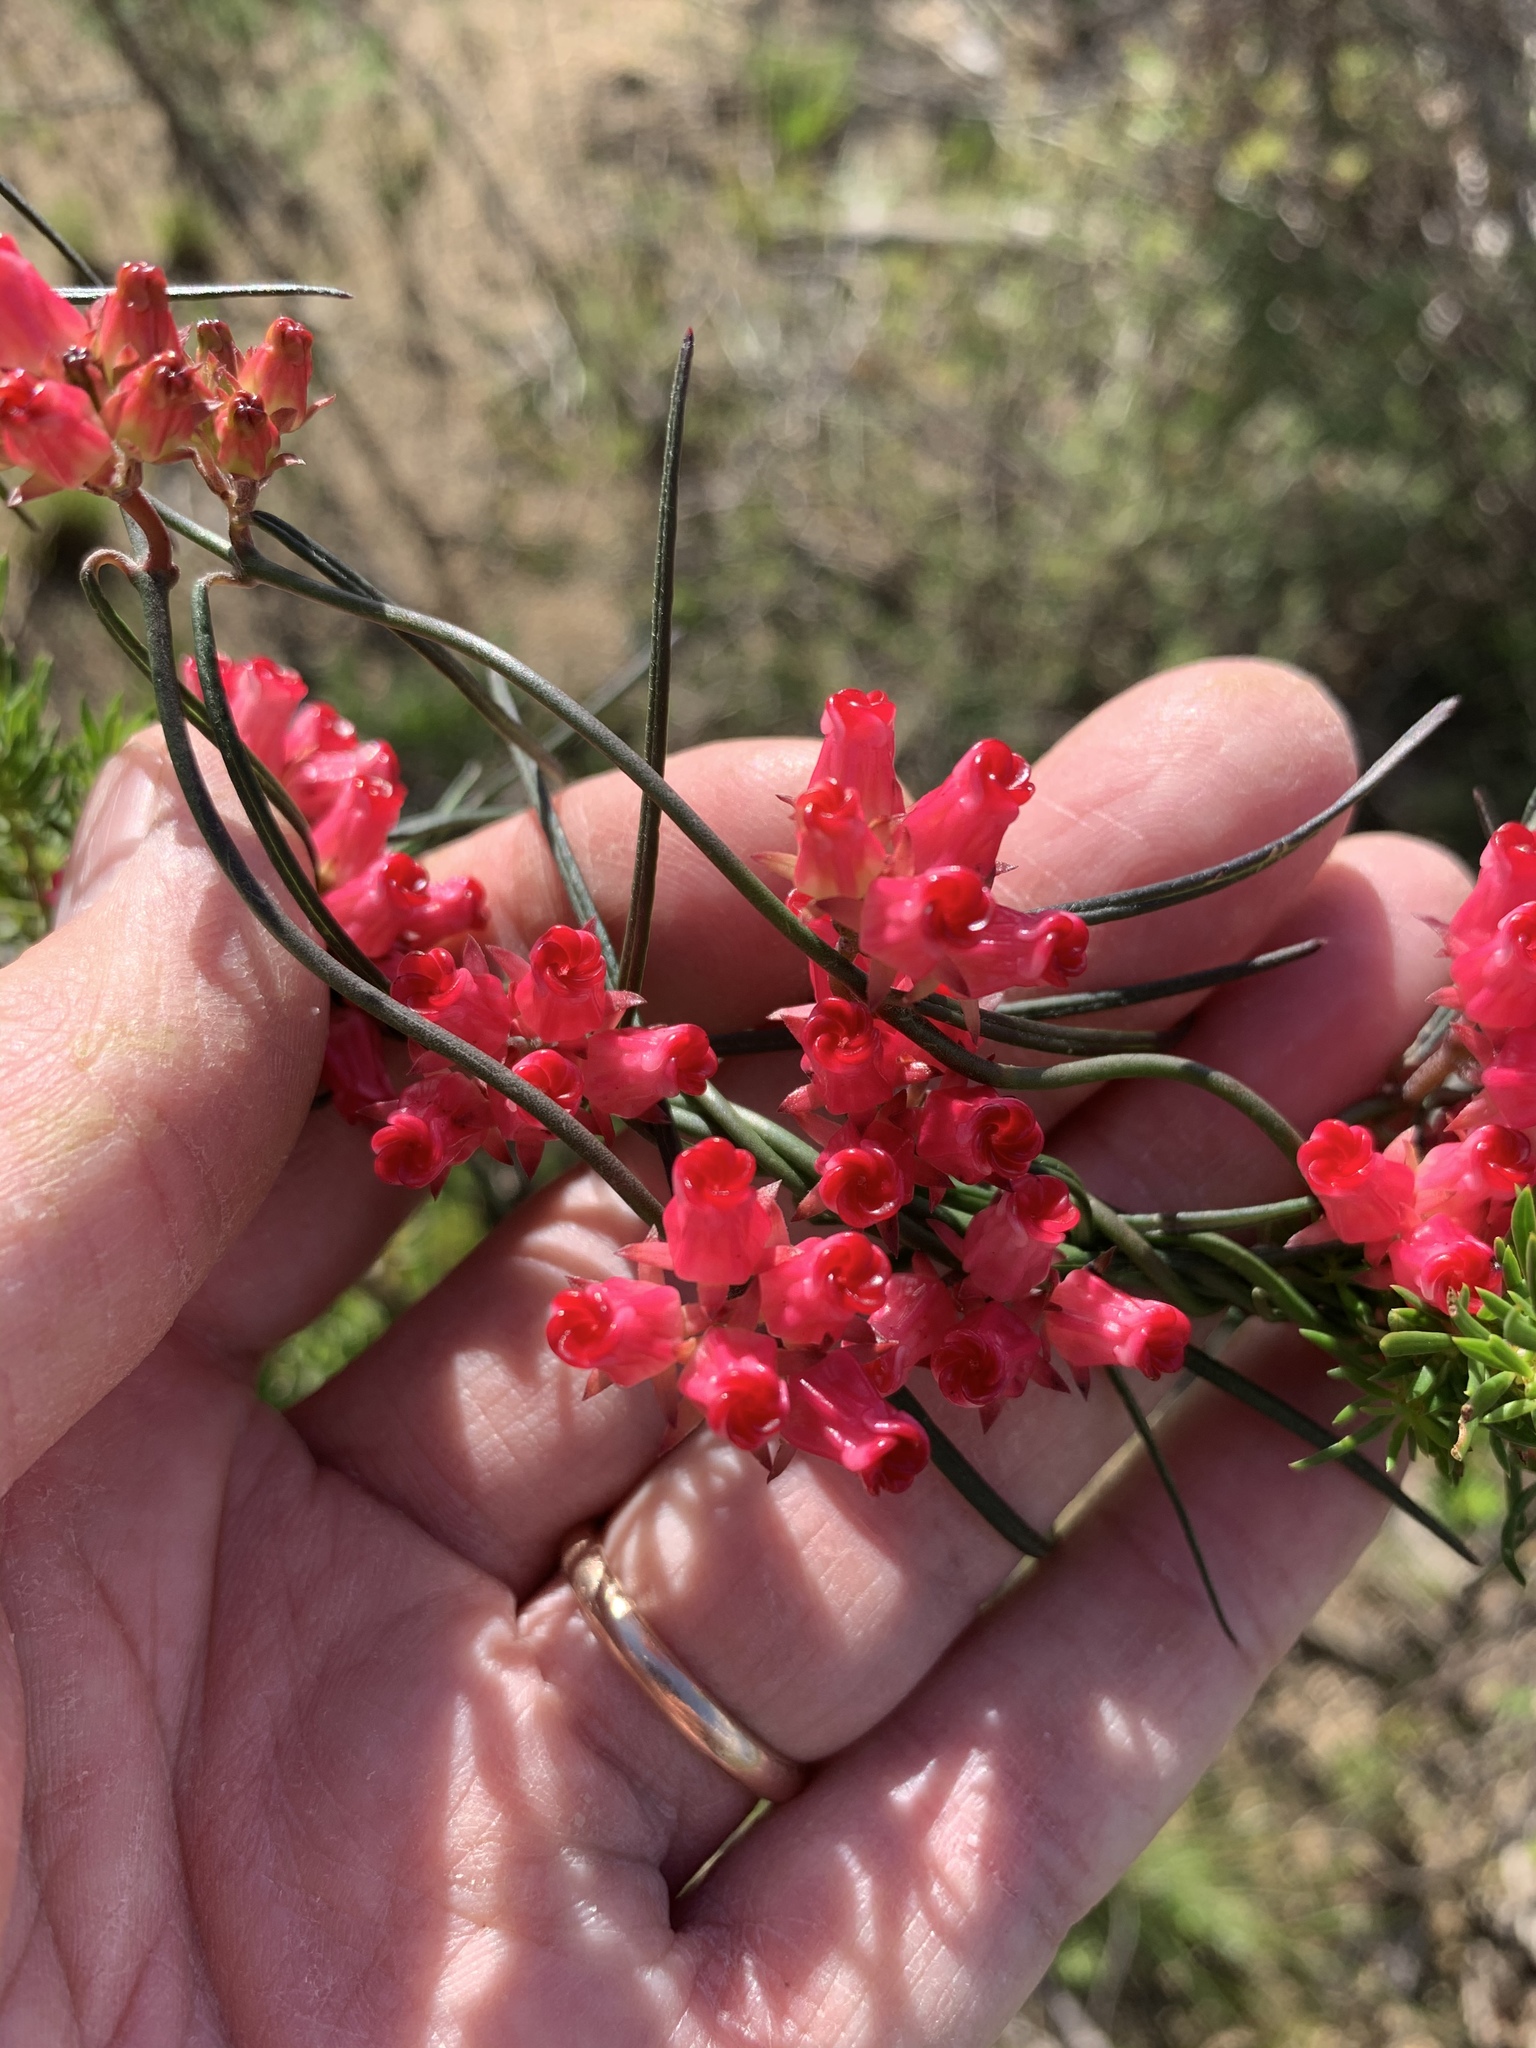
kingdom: Plantae
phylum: Tracheophyta
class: Magnoliopsida
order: Gentianales
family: Apocynaceae
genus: Microloma
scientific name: Microloma tenuifolium
